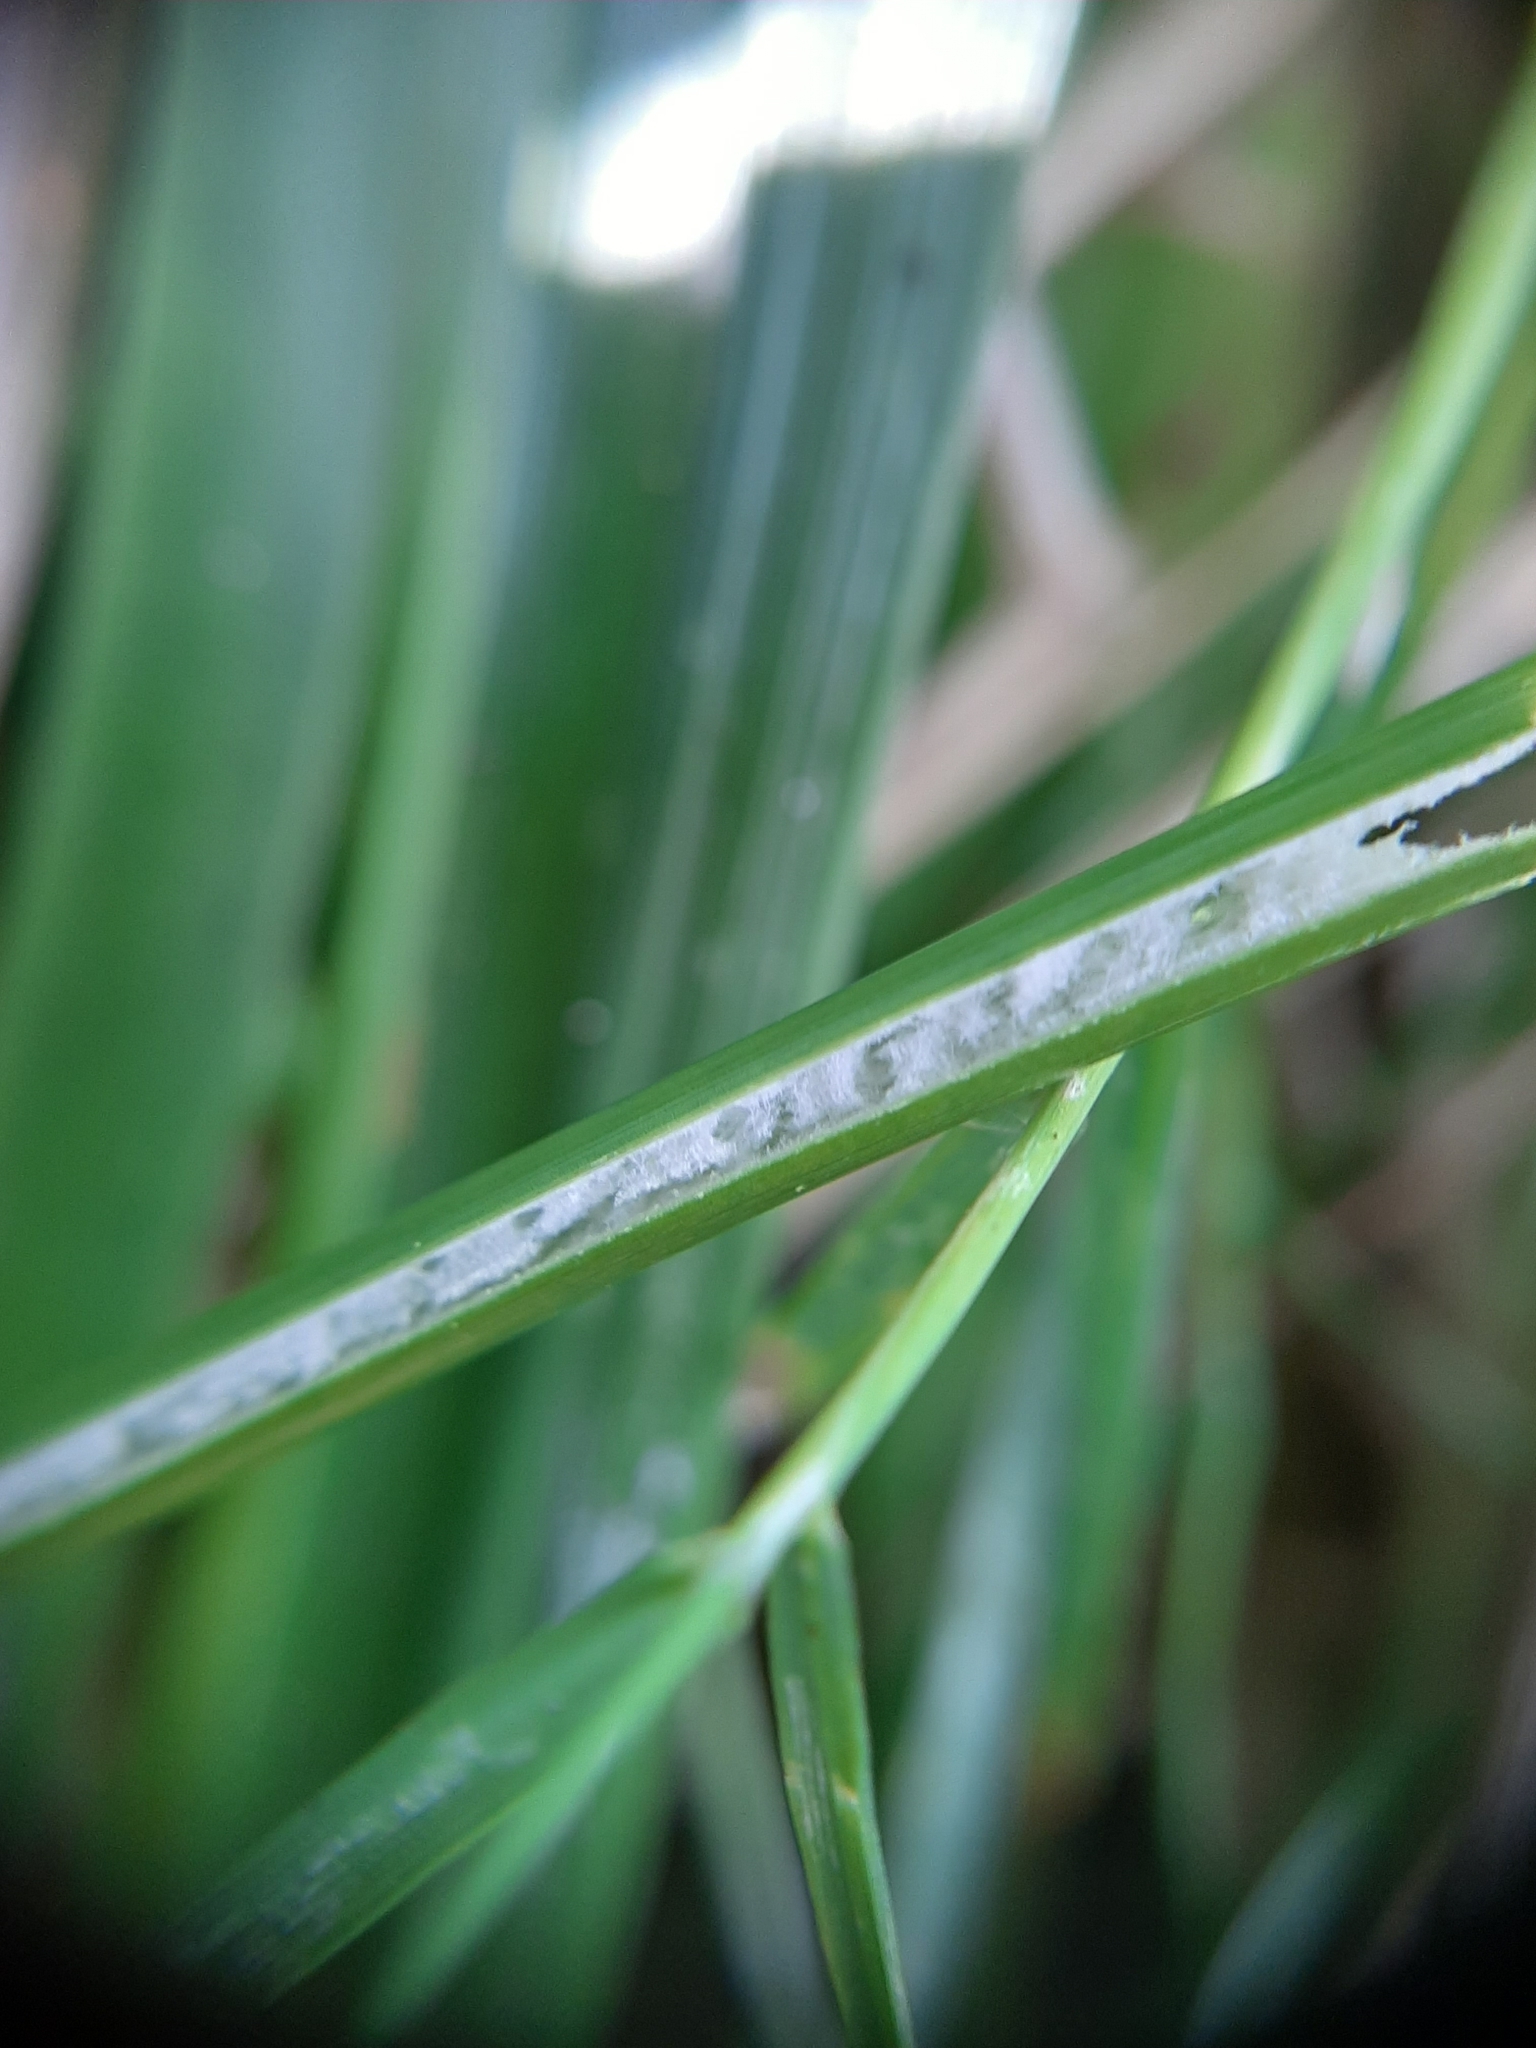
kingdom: Plantae
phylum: Tracheophyta
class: Liliopsida
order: Poales
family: Juncaceae
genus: Juncus
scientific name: Juncus edgariae
